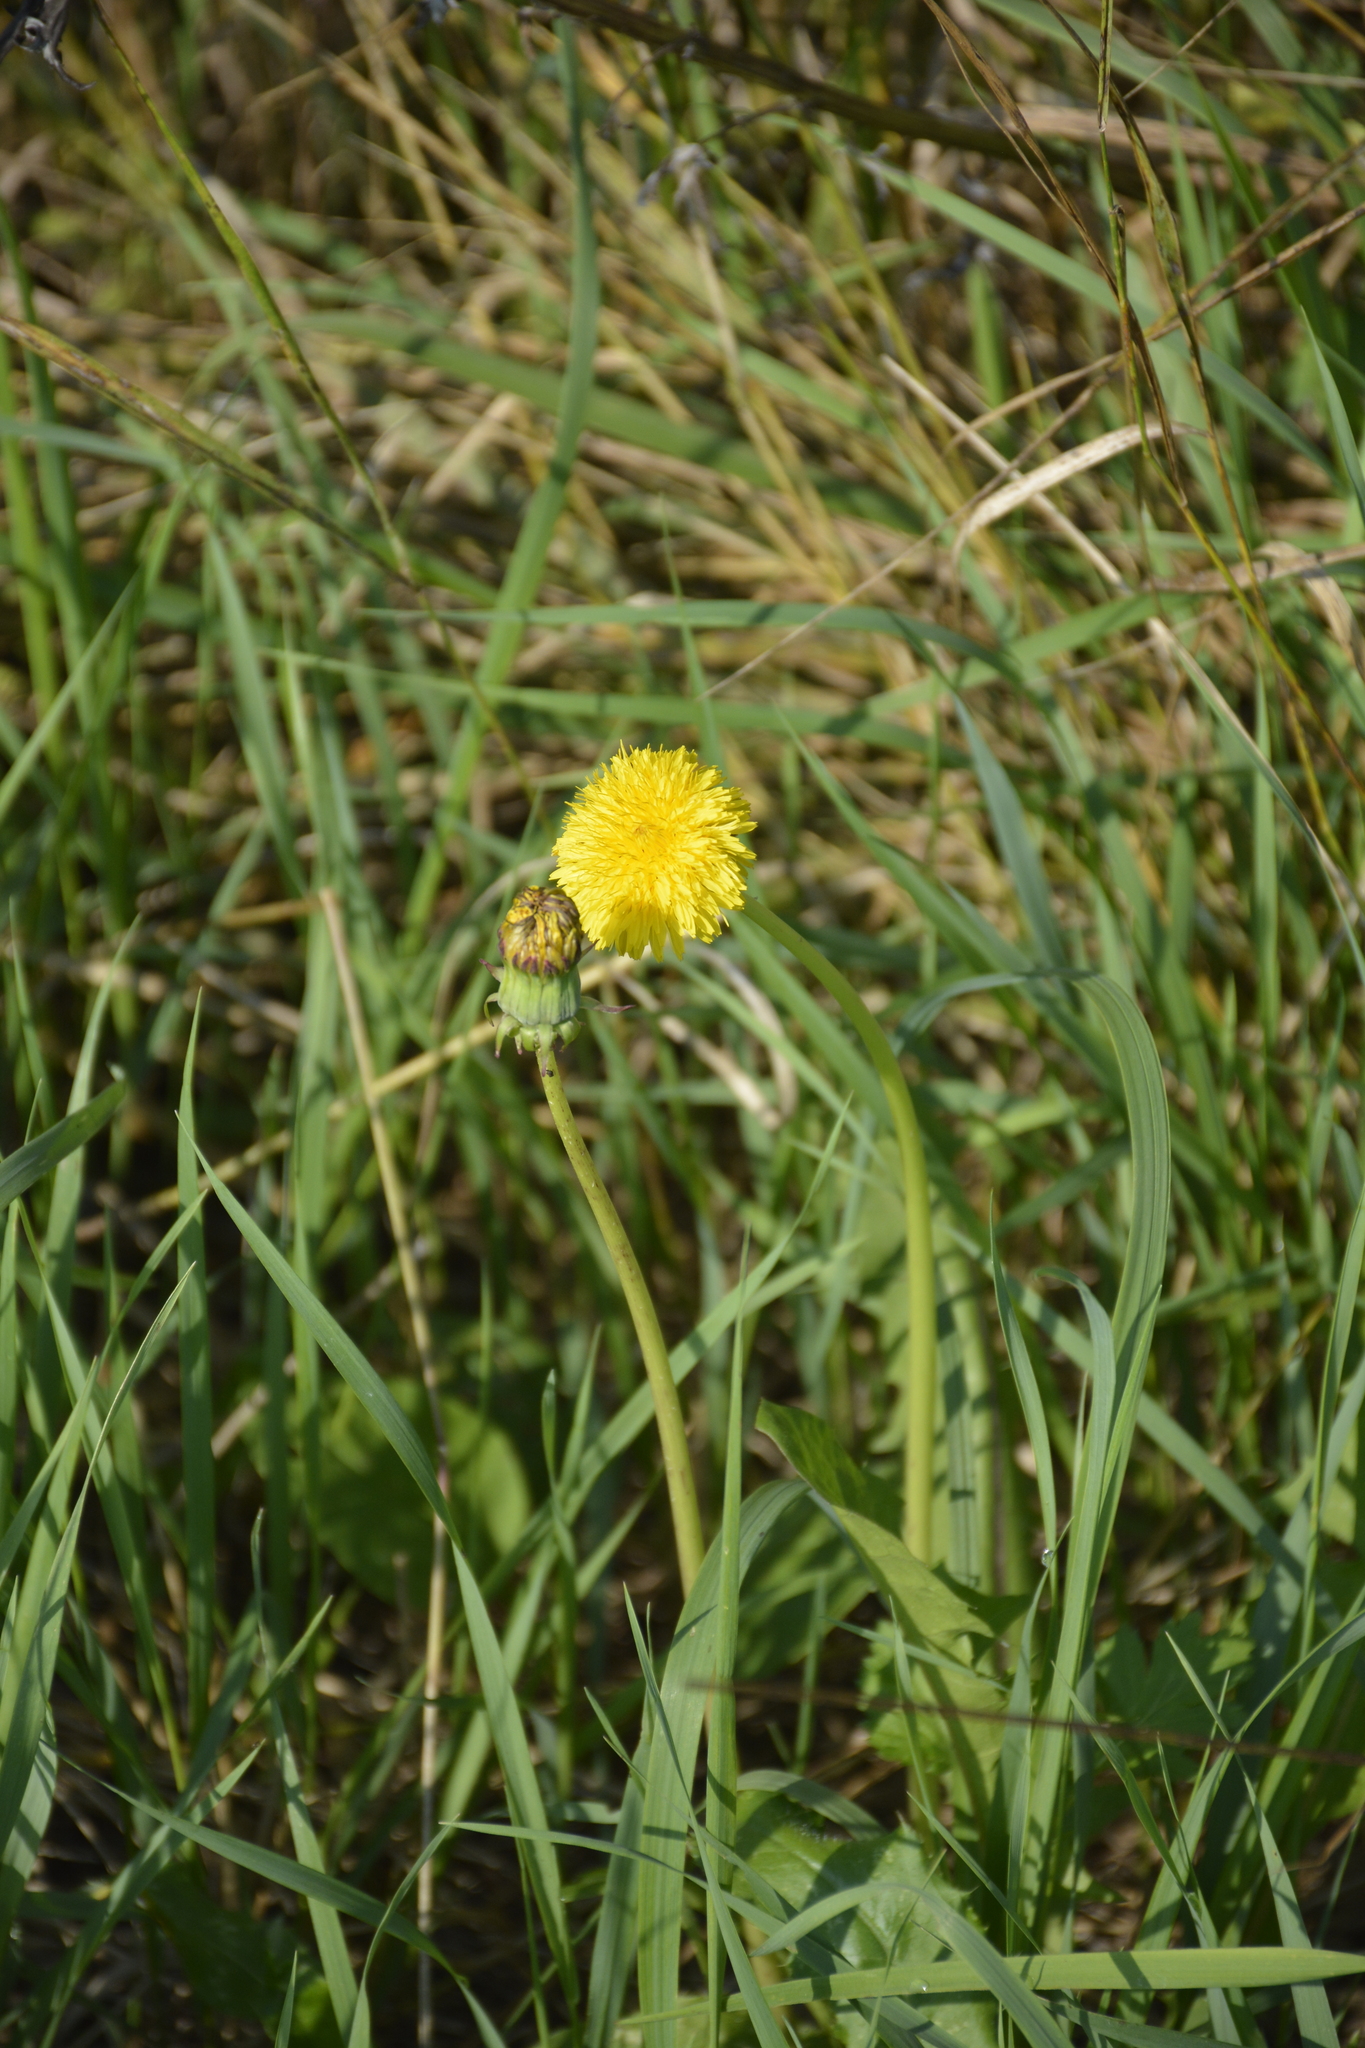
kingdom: Plantae
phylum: Tracheophyta
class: Magnoliopsida
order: Asterales
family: Asteraceae
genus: Taraxacum
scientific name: Taraxacum officinale
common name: Common dandelion
